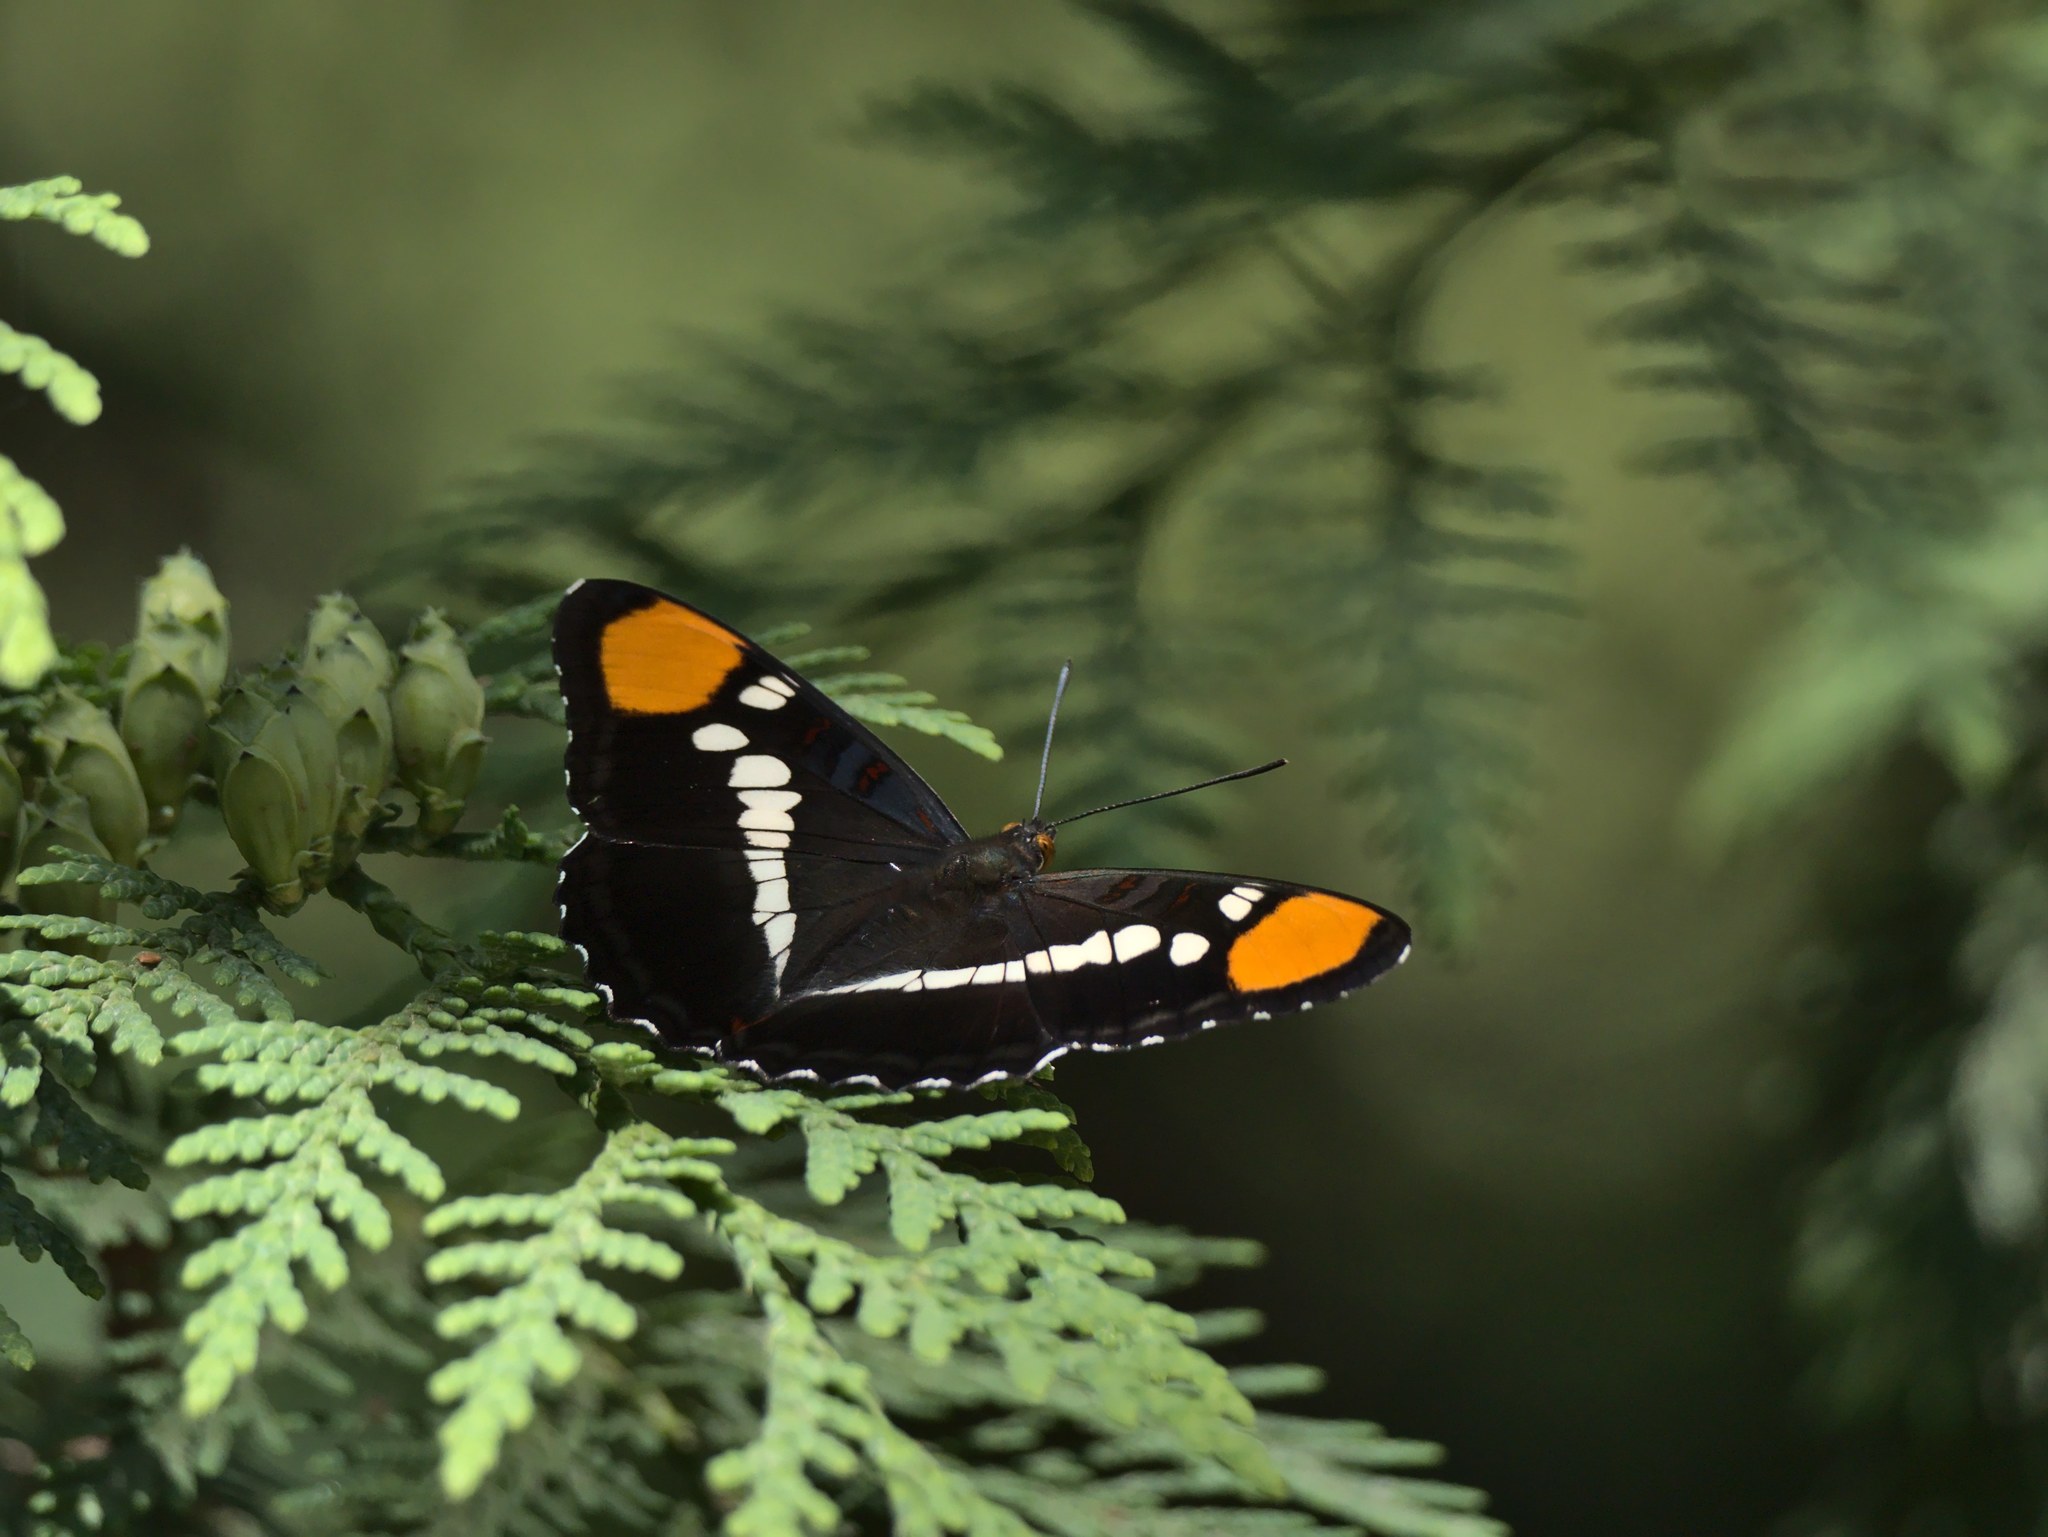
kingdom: Animalia
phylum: Arthropoda
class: Insecta
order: Lepidoptera
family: Nymphalidae
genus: Limenitis
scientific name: Limenitis bredowii
